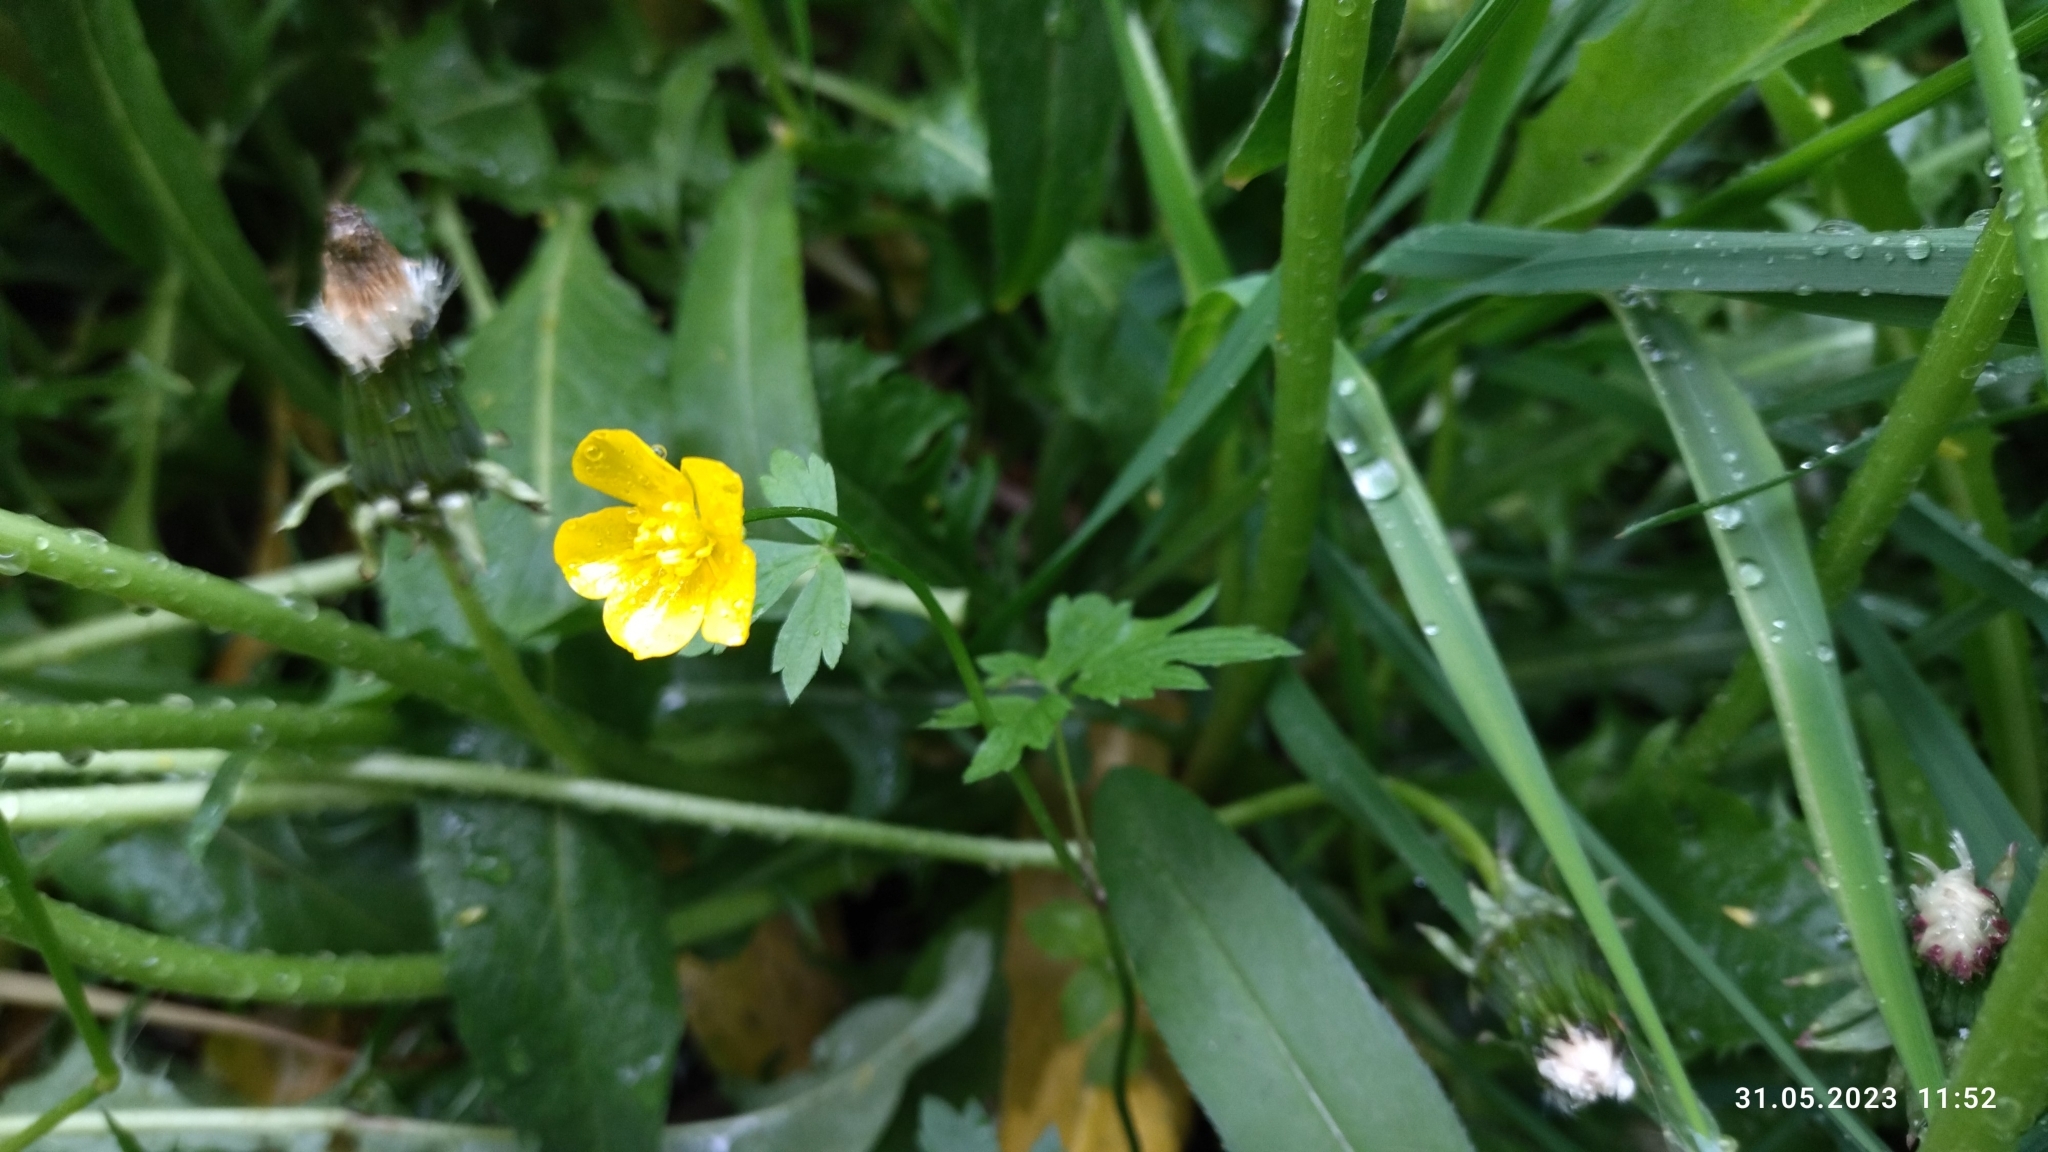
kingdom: Plantae
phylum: Tracheophyta
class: Magnoliopsida
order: Ranunculales
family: Ranunculaceae
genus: Ranunculus
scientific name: Ranunculus repens
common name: Creeping buttercup
